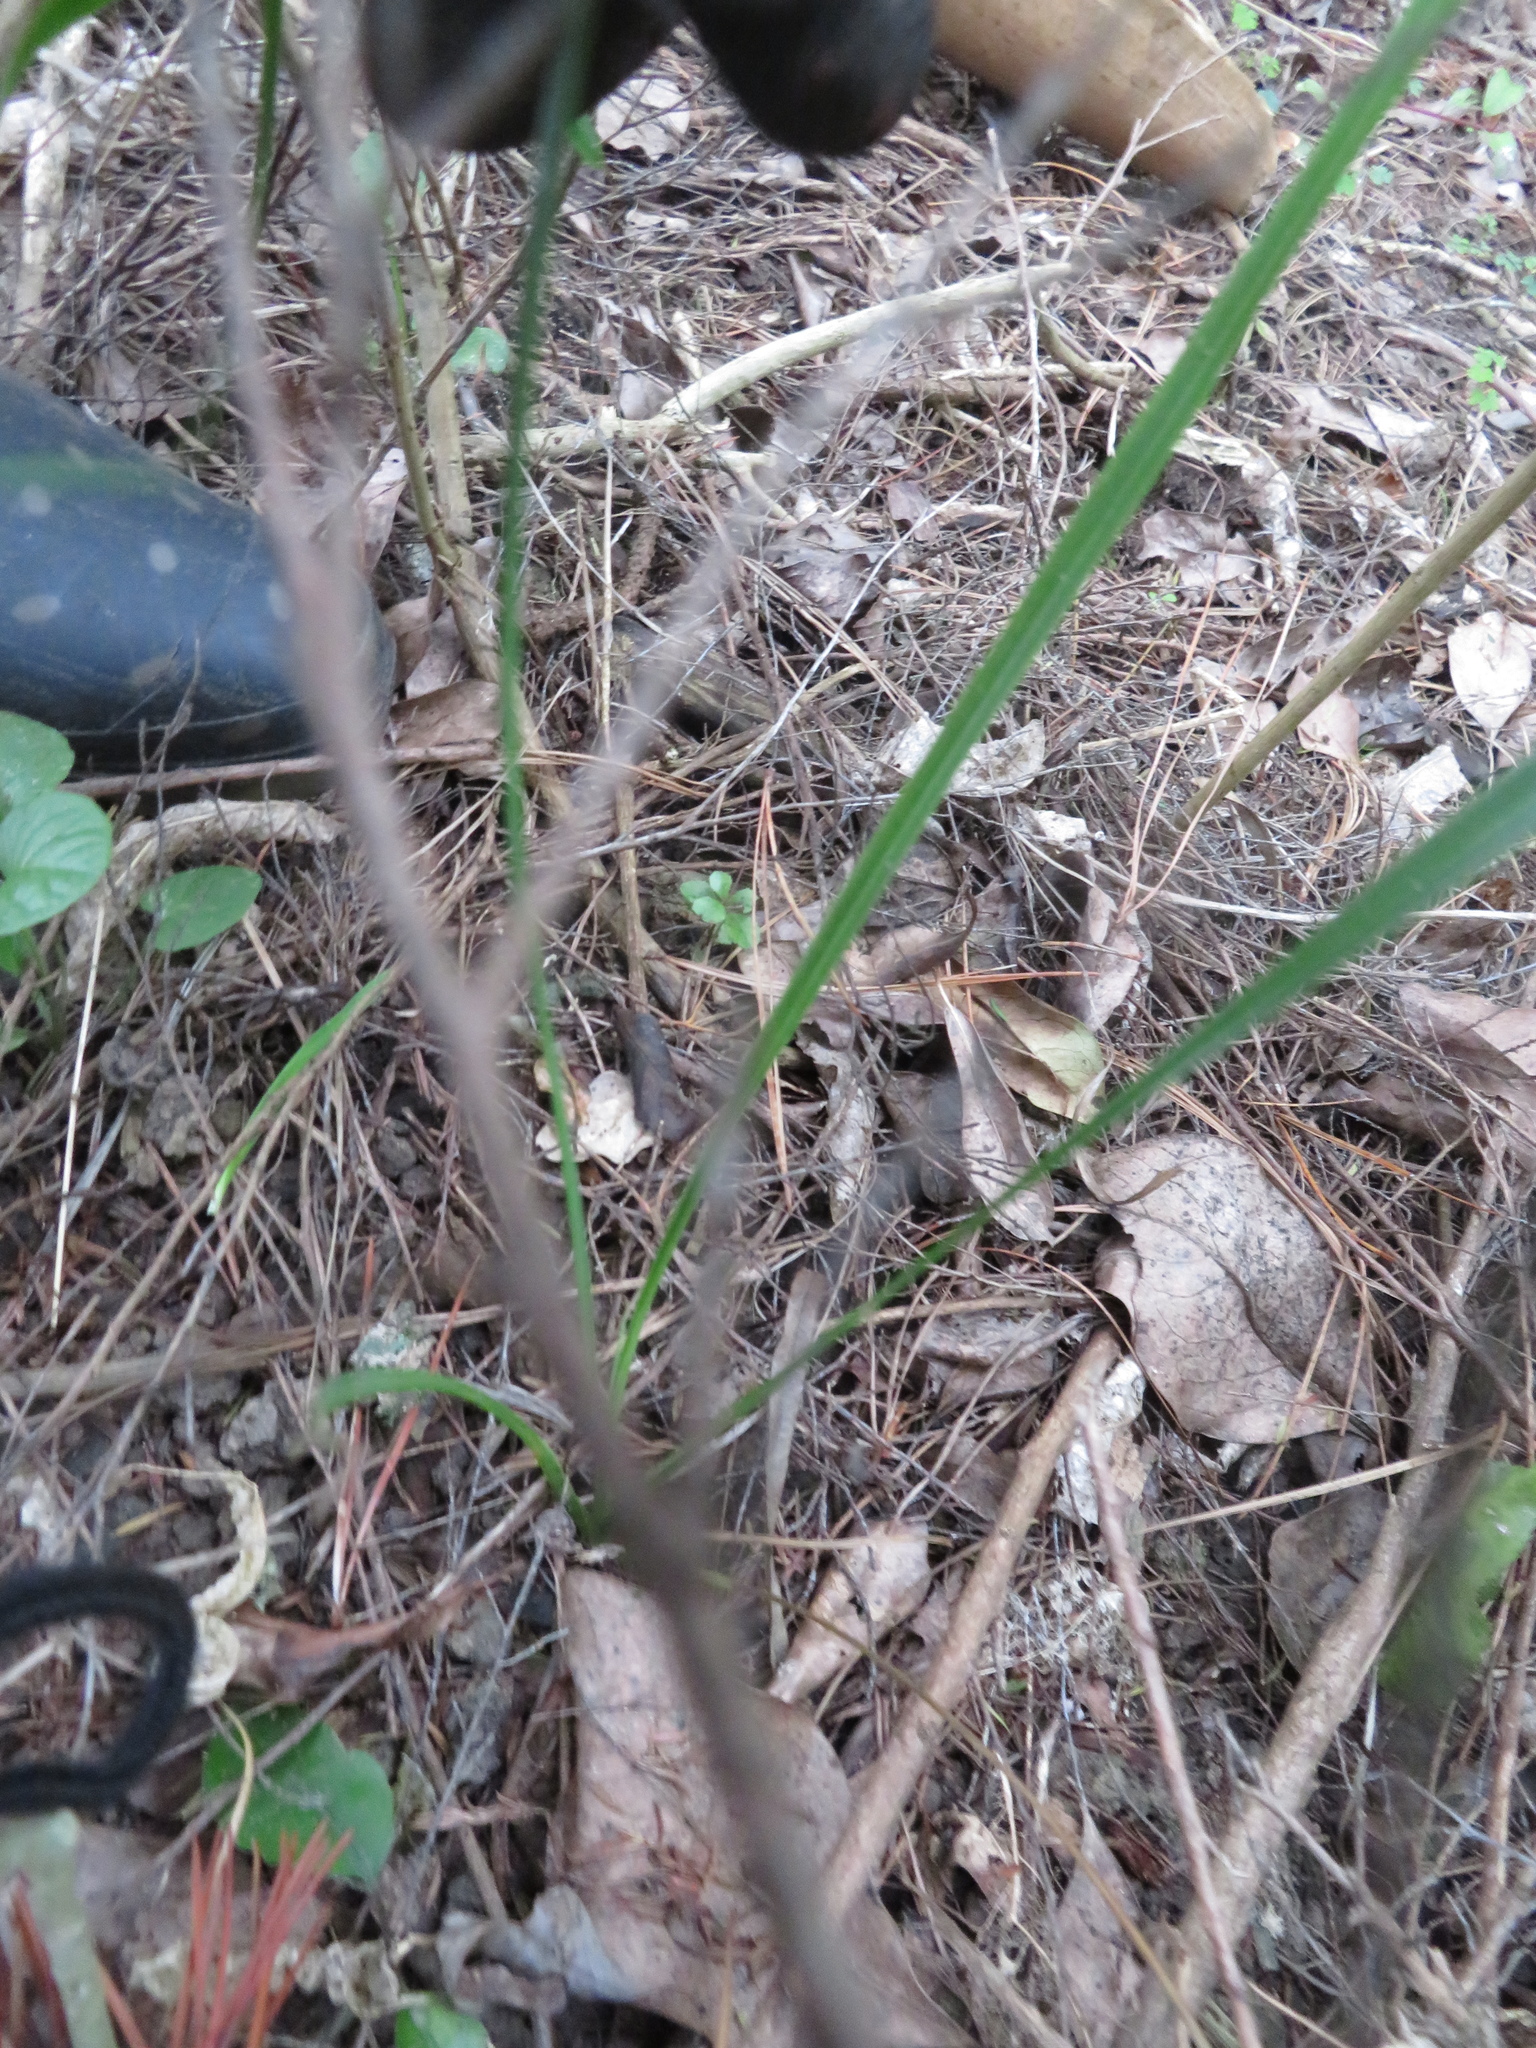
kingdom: Plantae
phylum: Tracheophyta
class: Magnoliopsida
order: Ericales
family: Primulaceae
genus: Myrsine
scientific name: Myrsine australis
